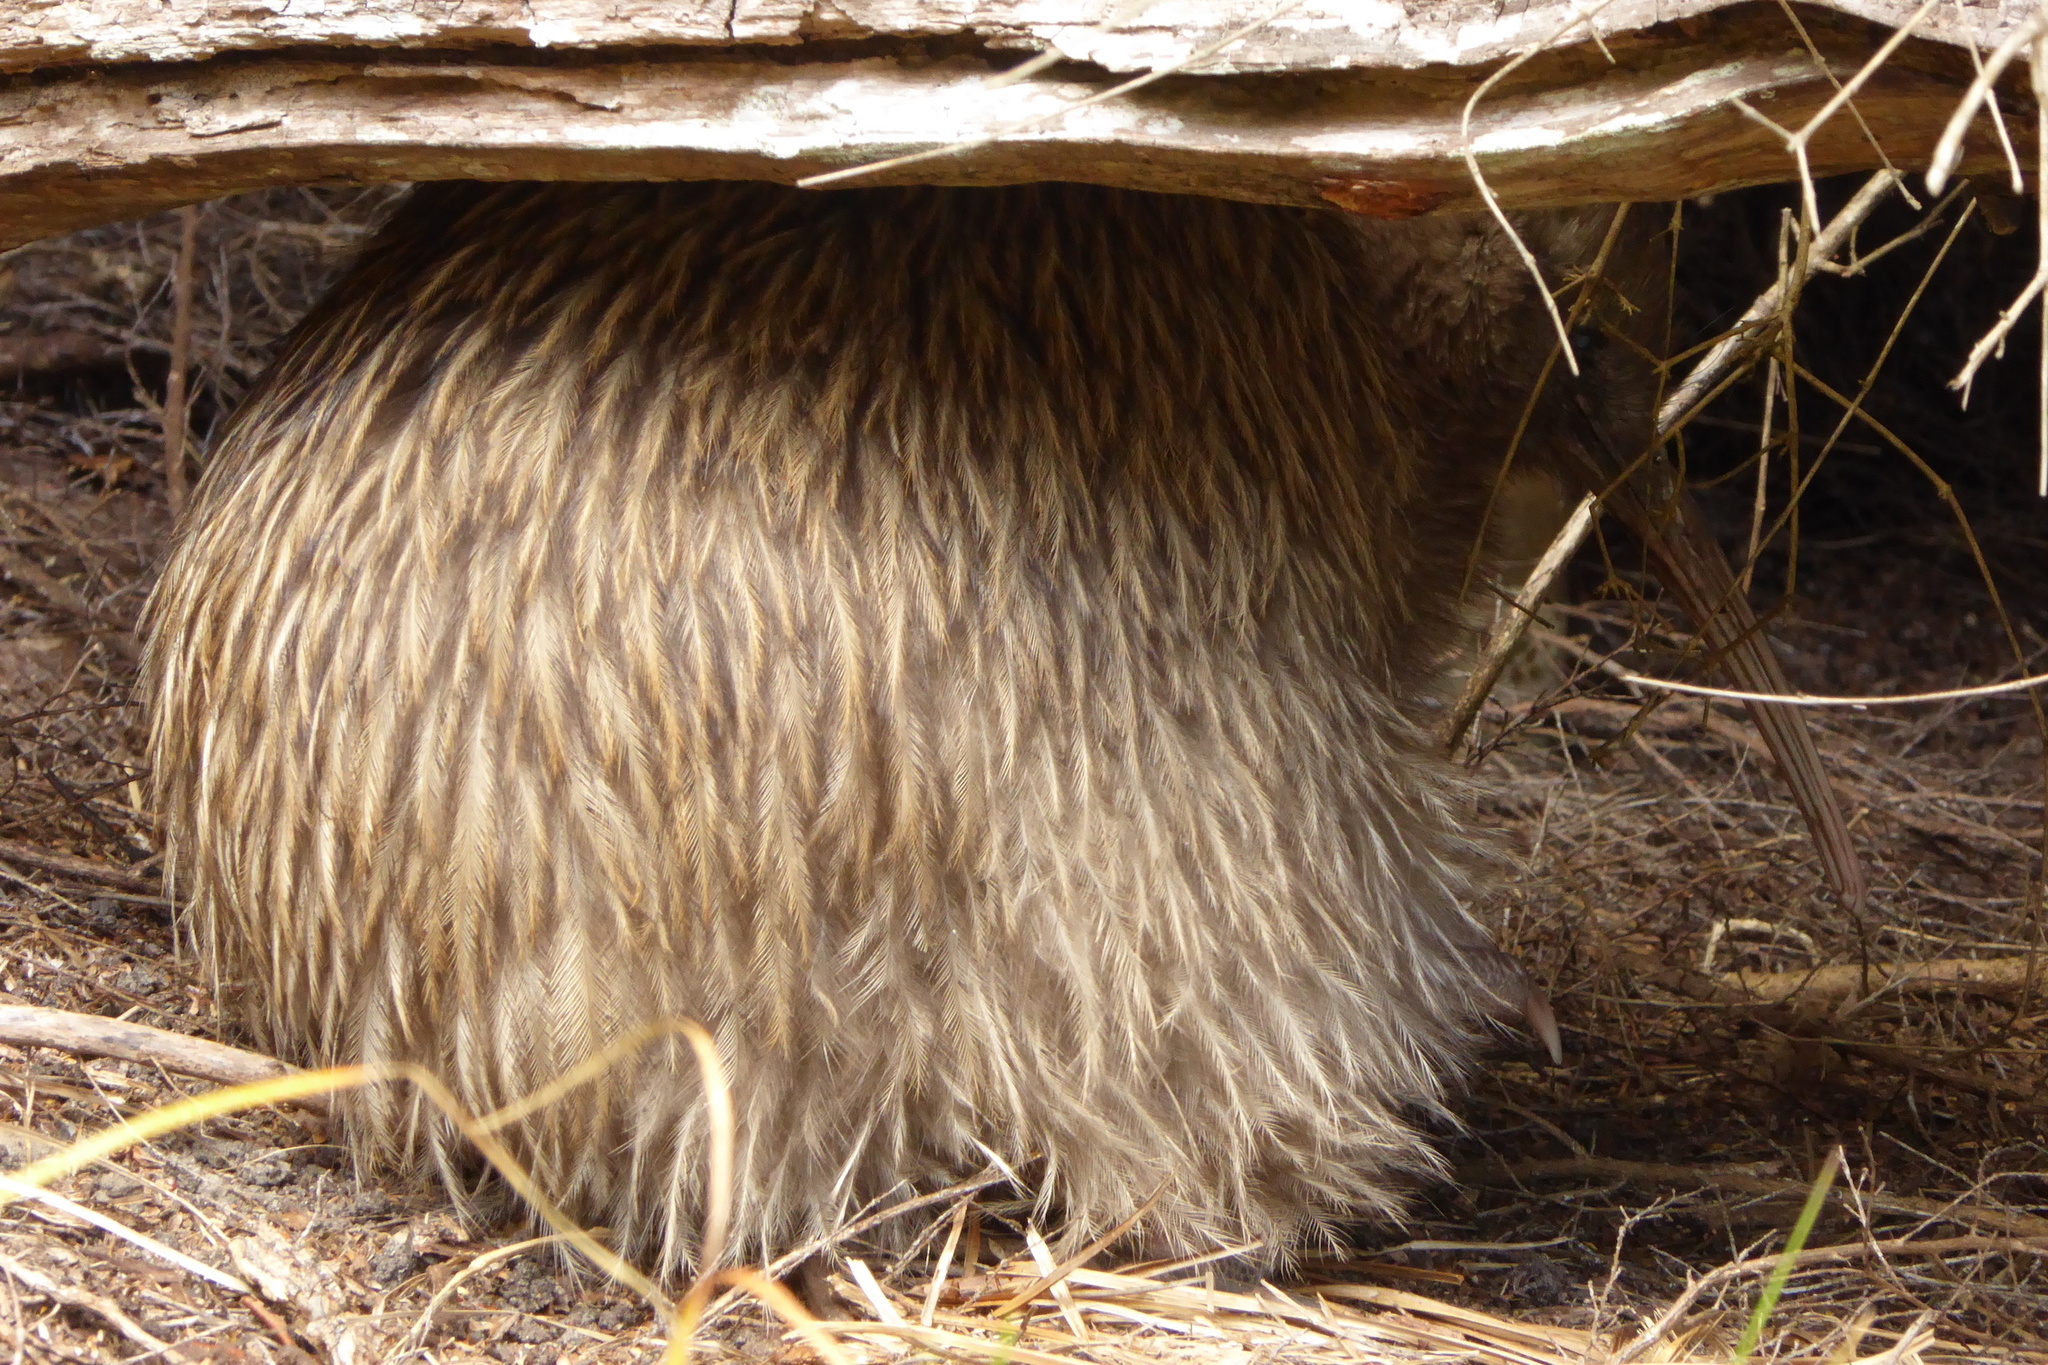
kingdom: Animalia
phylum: Chordata
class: Aves
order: Apterygiformes
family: Apterygidae
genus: Apteryx
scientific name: Apteryx australis
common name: Southern brown kiwi
